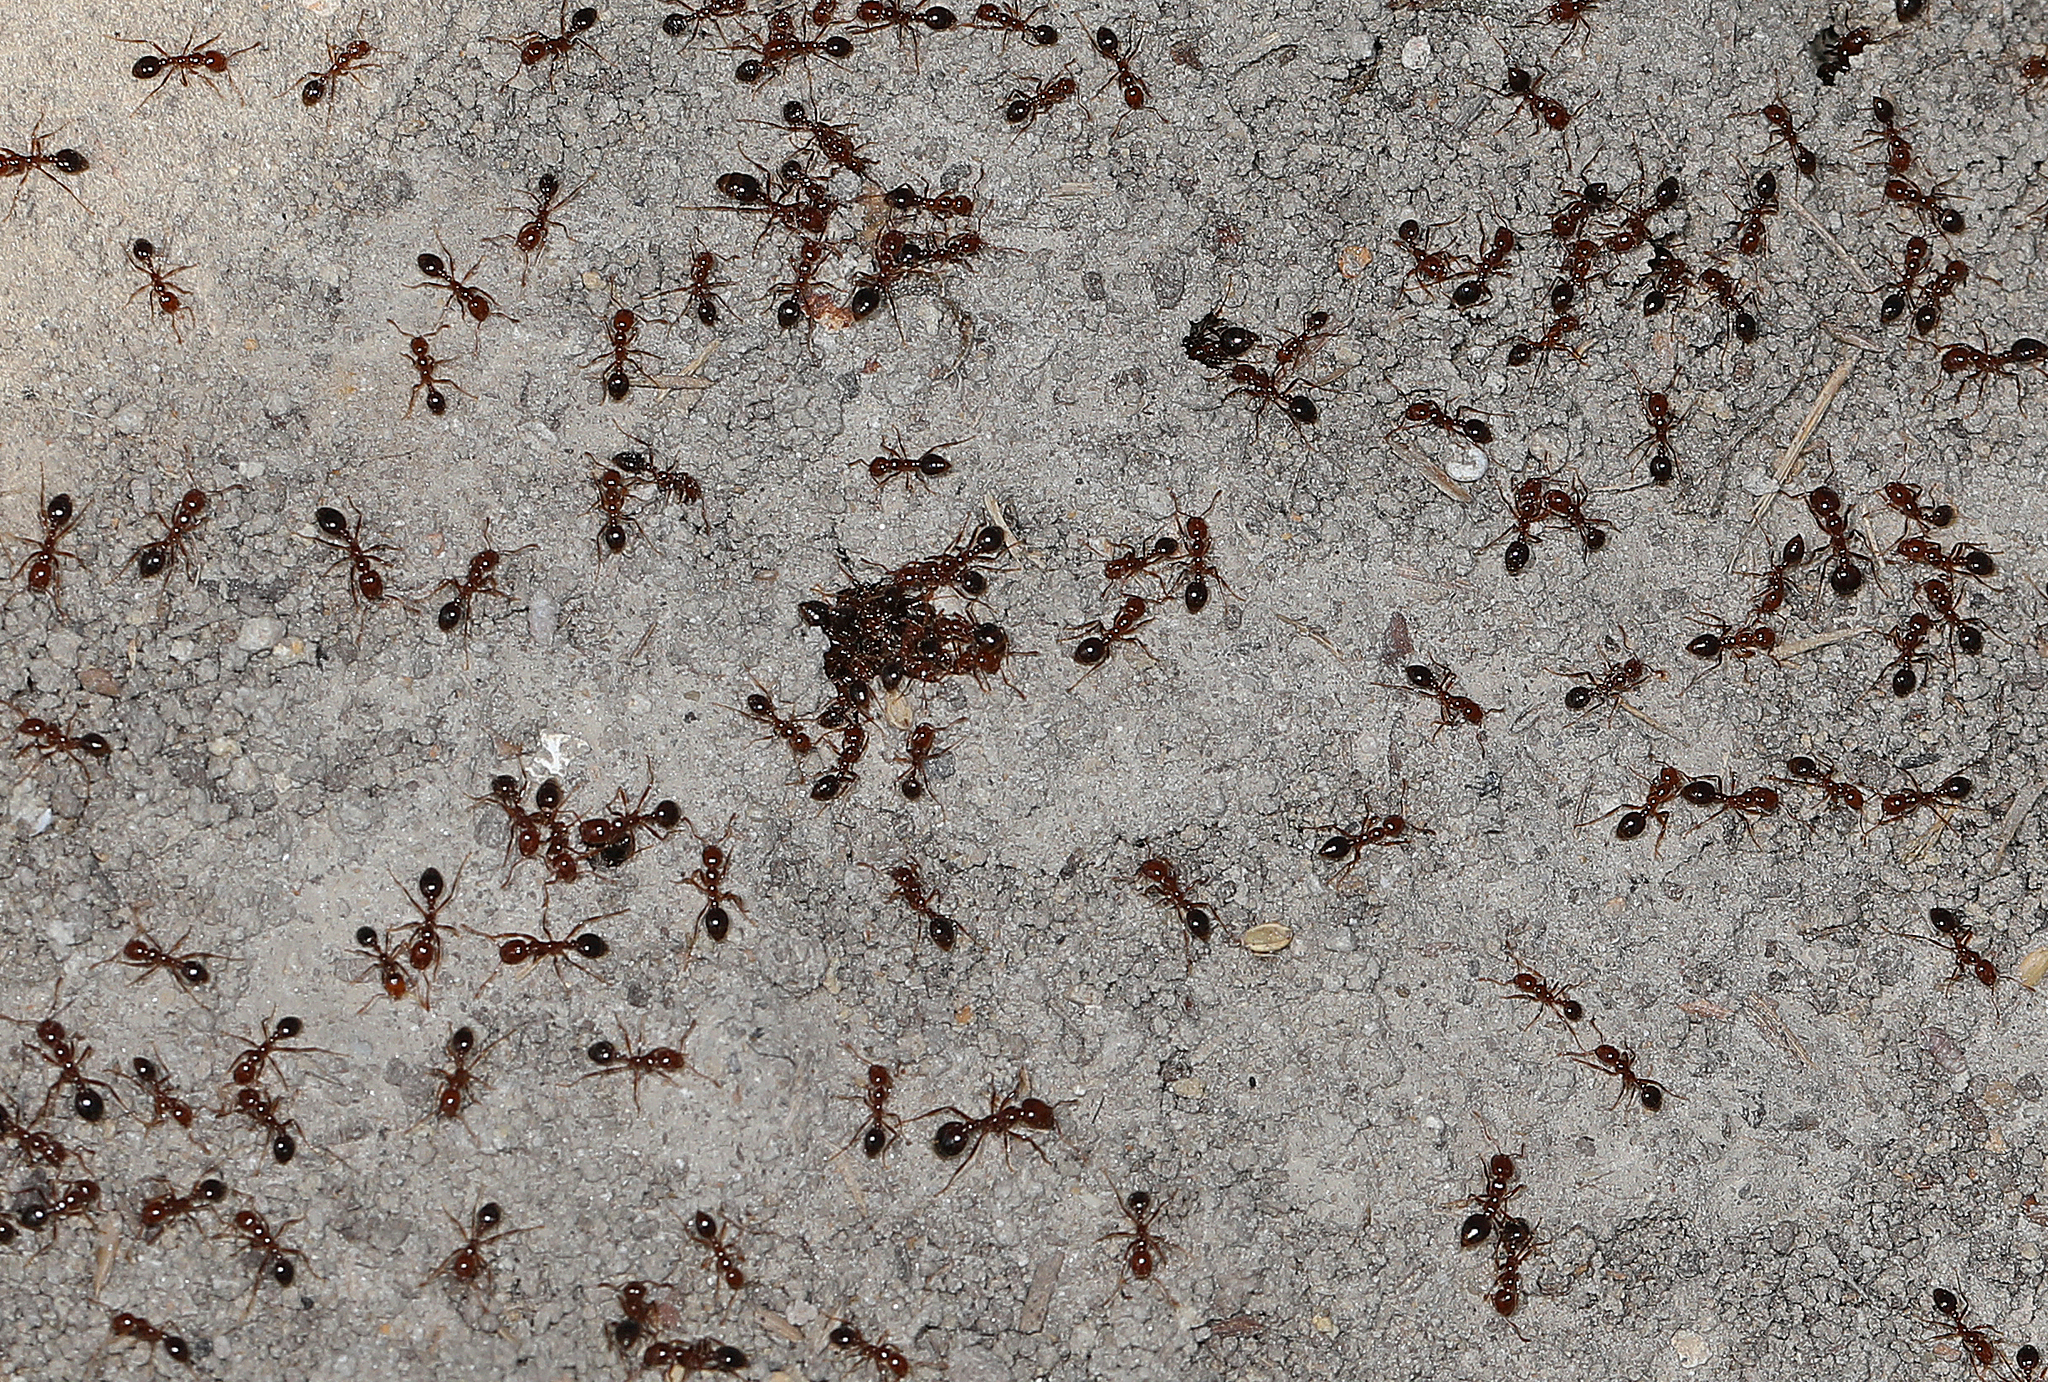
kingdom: Animalia
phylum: Arthropoda
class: Insecta
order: Hymenoptera
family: Formicidae
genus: Solenopsis
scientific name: Solenopsis invicta
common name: Red imported fire ant
